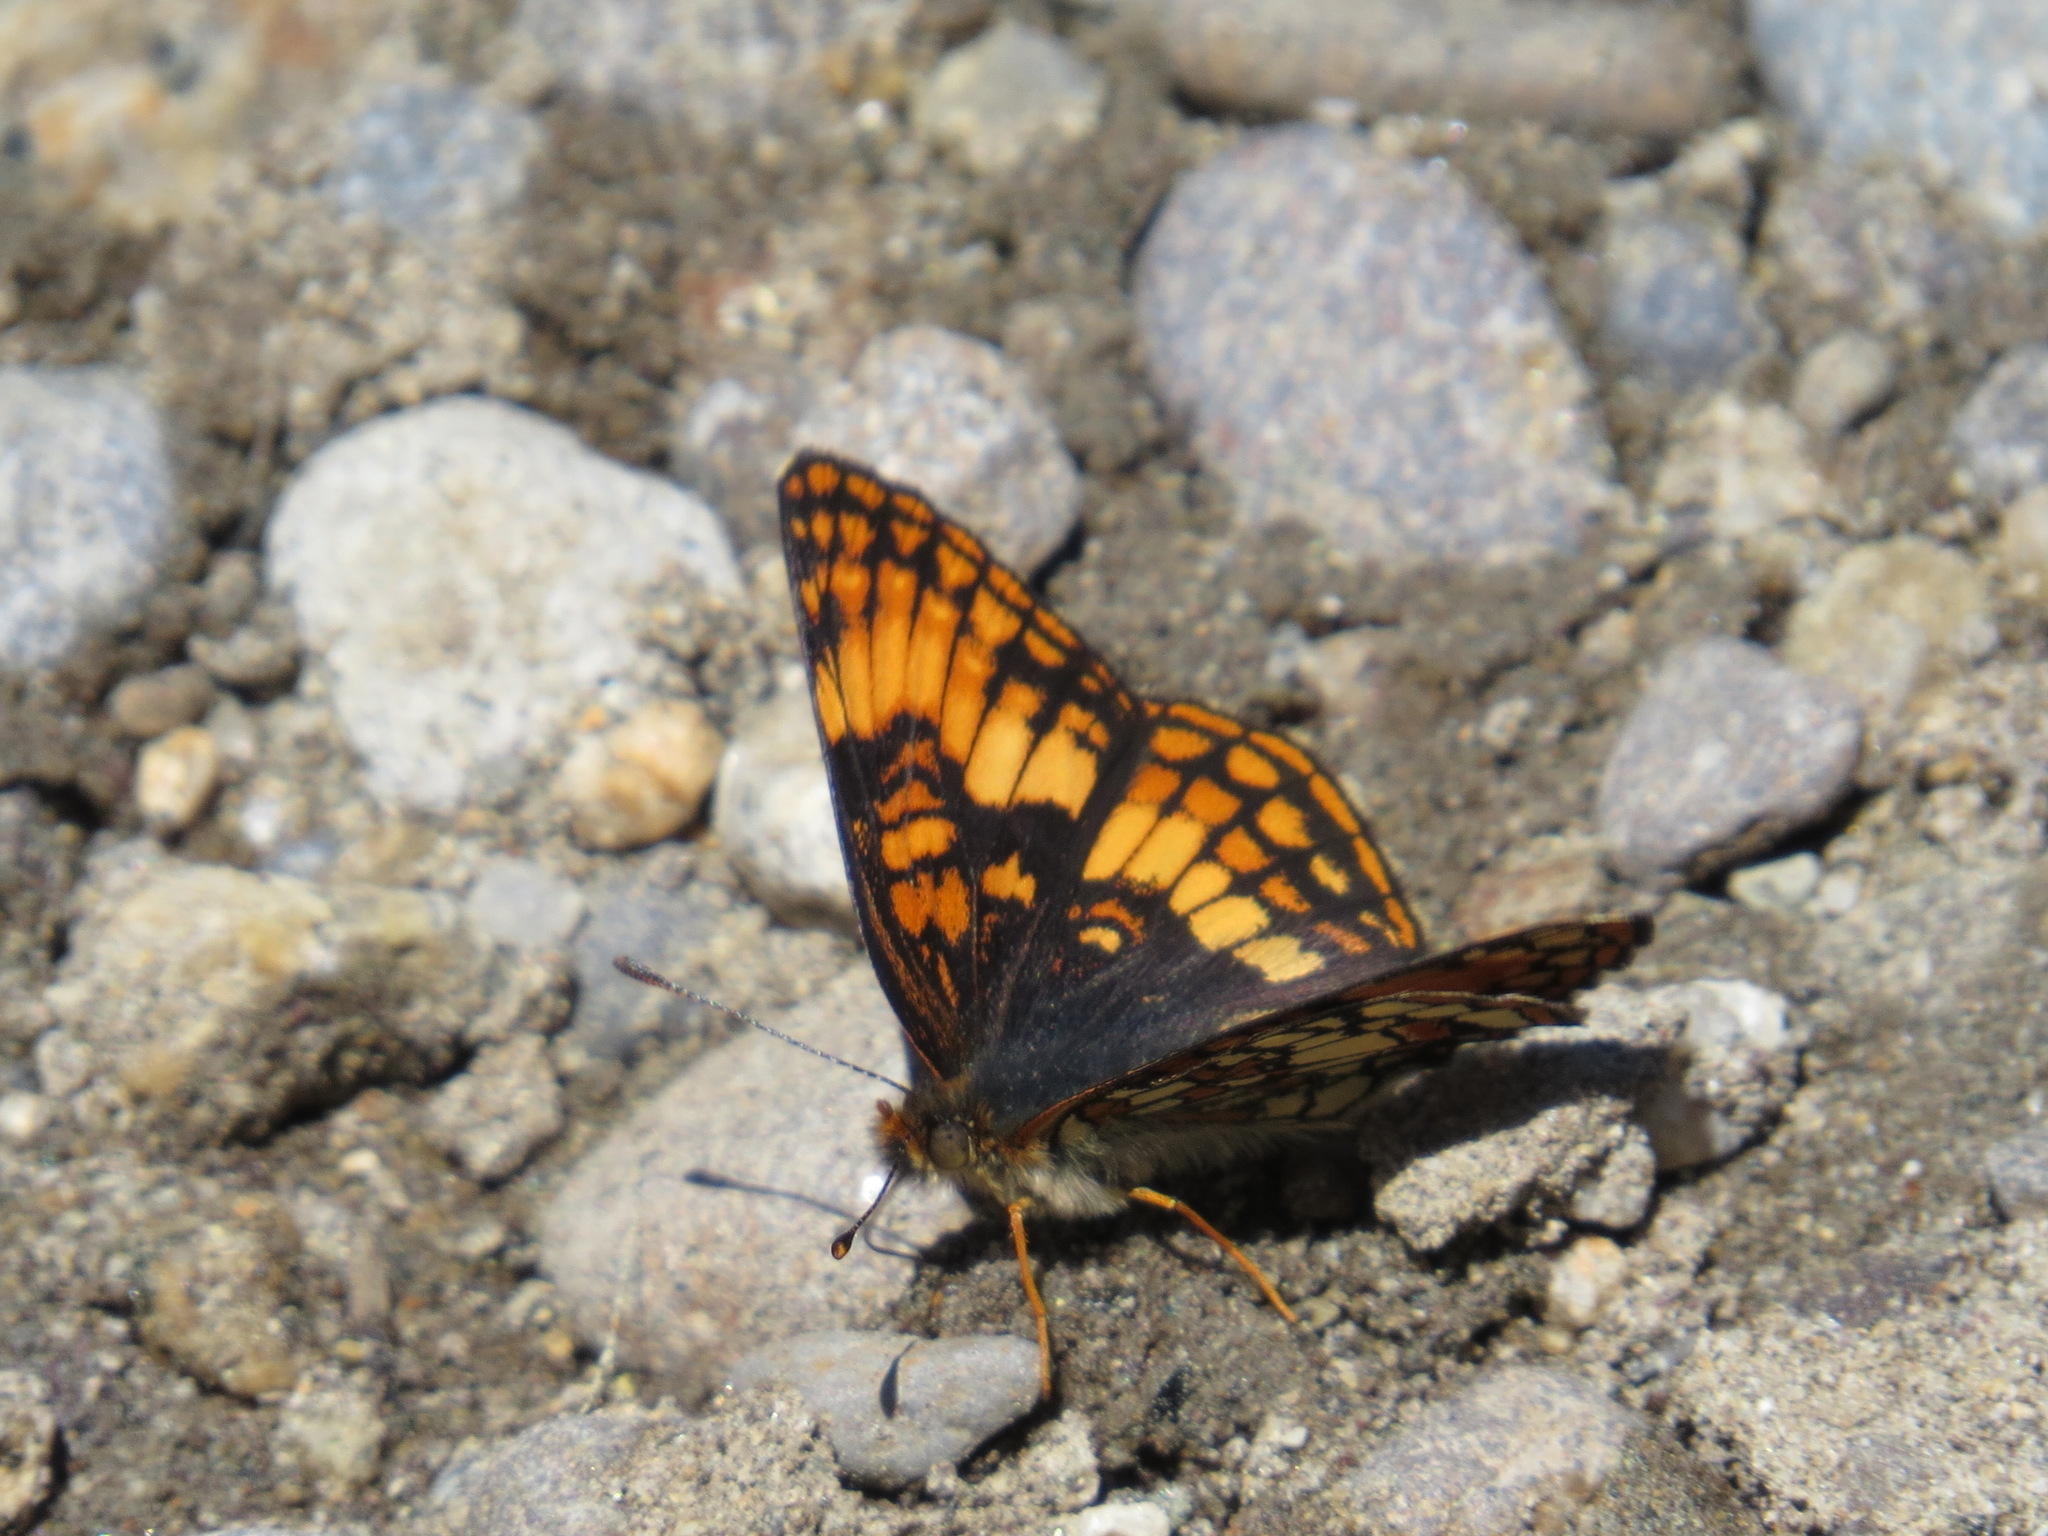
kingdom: Animalia
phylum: Arthropoda
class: Insecta
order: Lepidoptera
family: Nymphalidae
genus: Chlosyne
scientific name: Chlosyne hoffmanni
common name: Hoffmann's checkerspot
